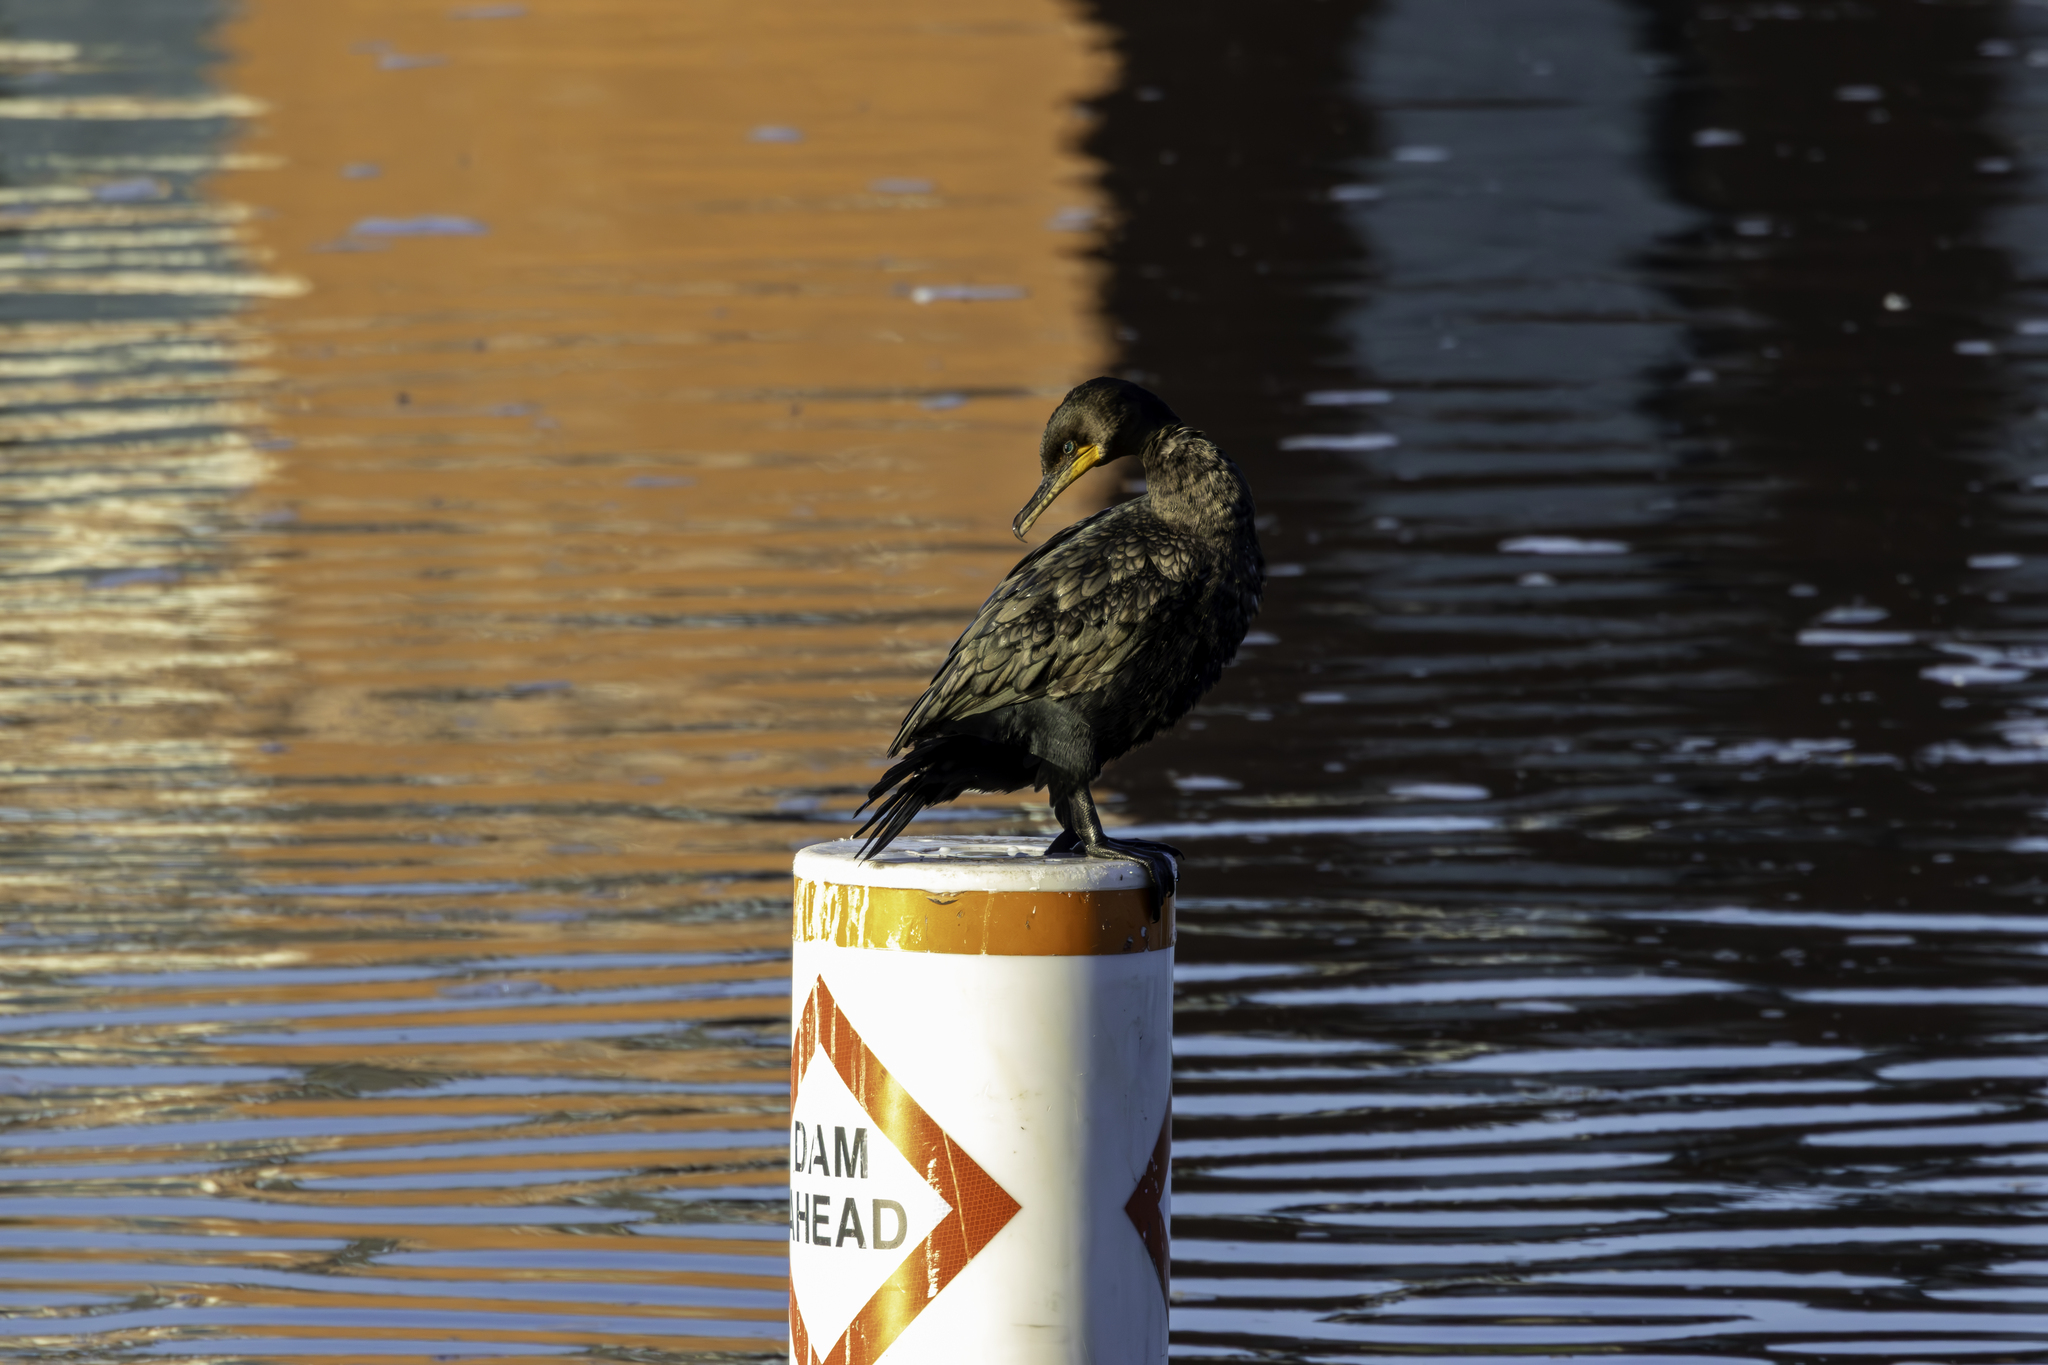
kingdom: Animalia
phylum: Chordata
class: Aves
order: Suliformes
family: Phalacrocoracidae
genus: Phalacrocorax
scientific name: Phalacrocorax auritus
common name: Double-crested cormorant
